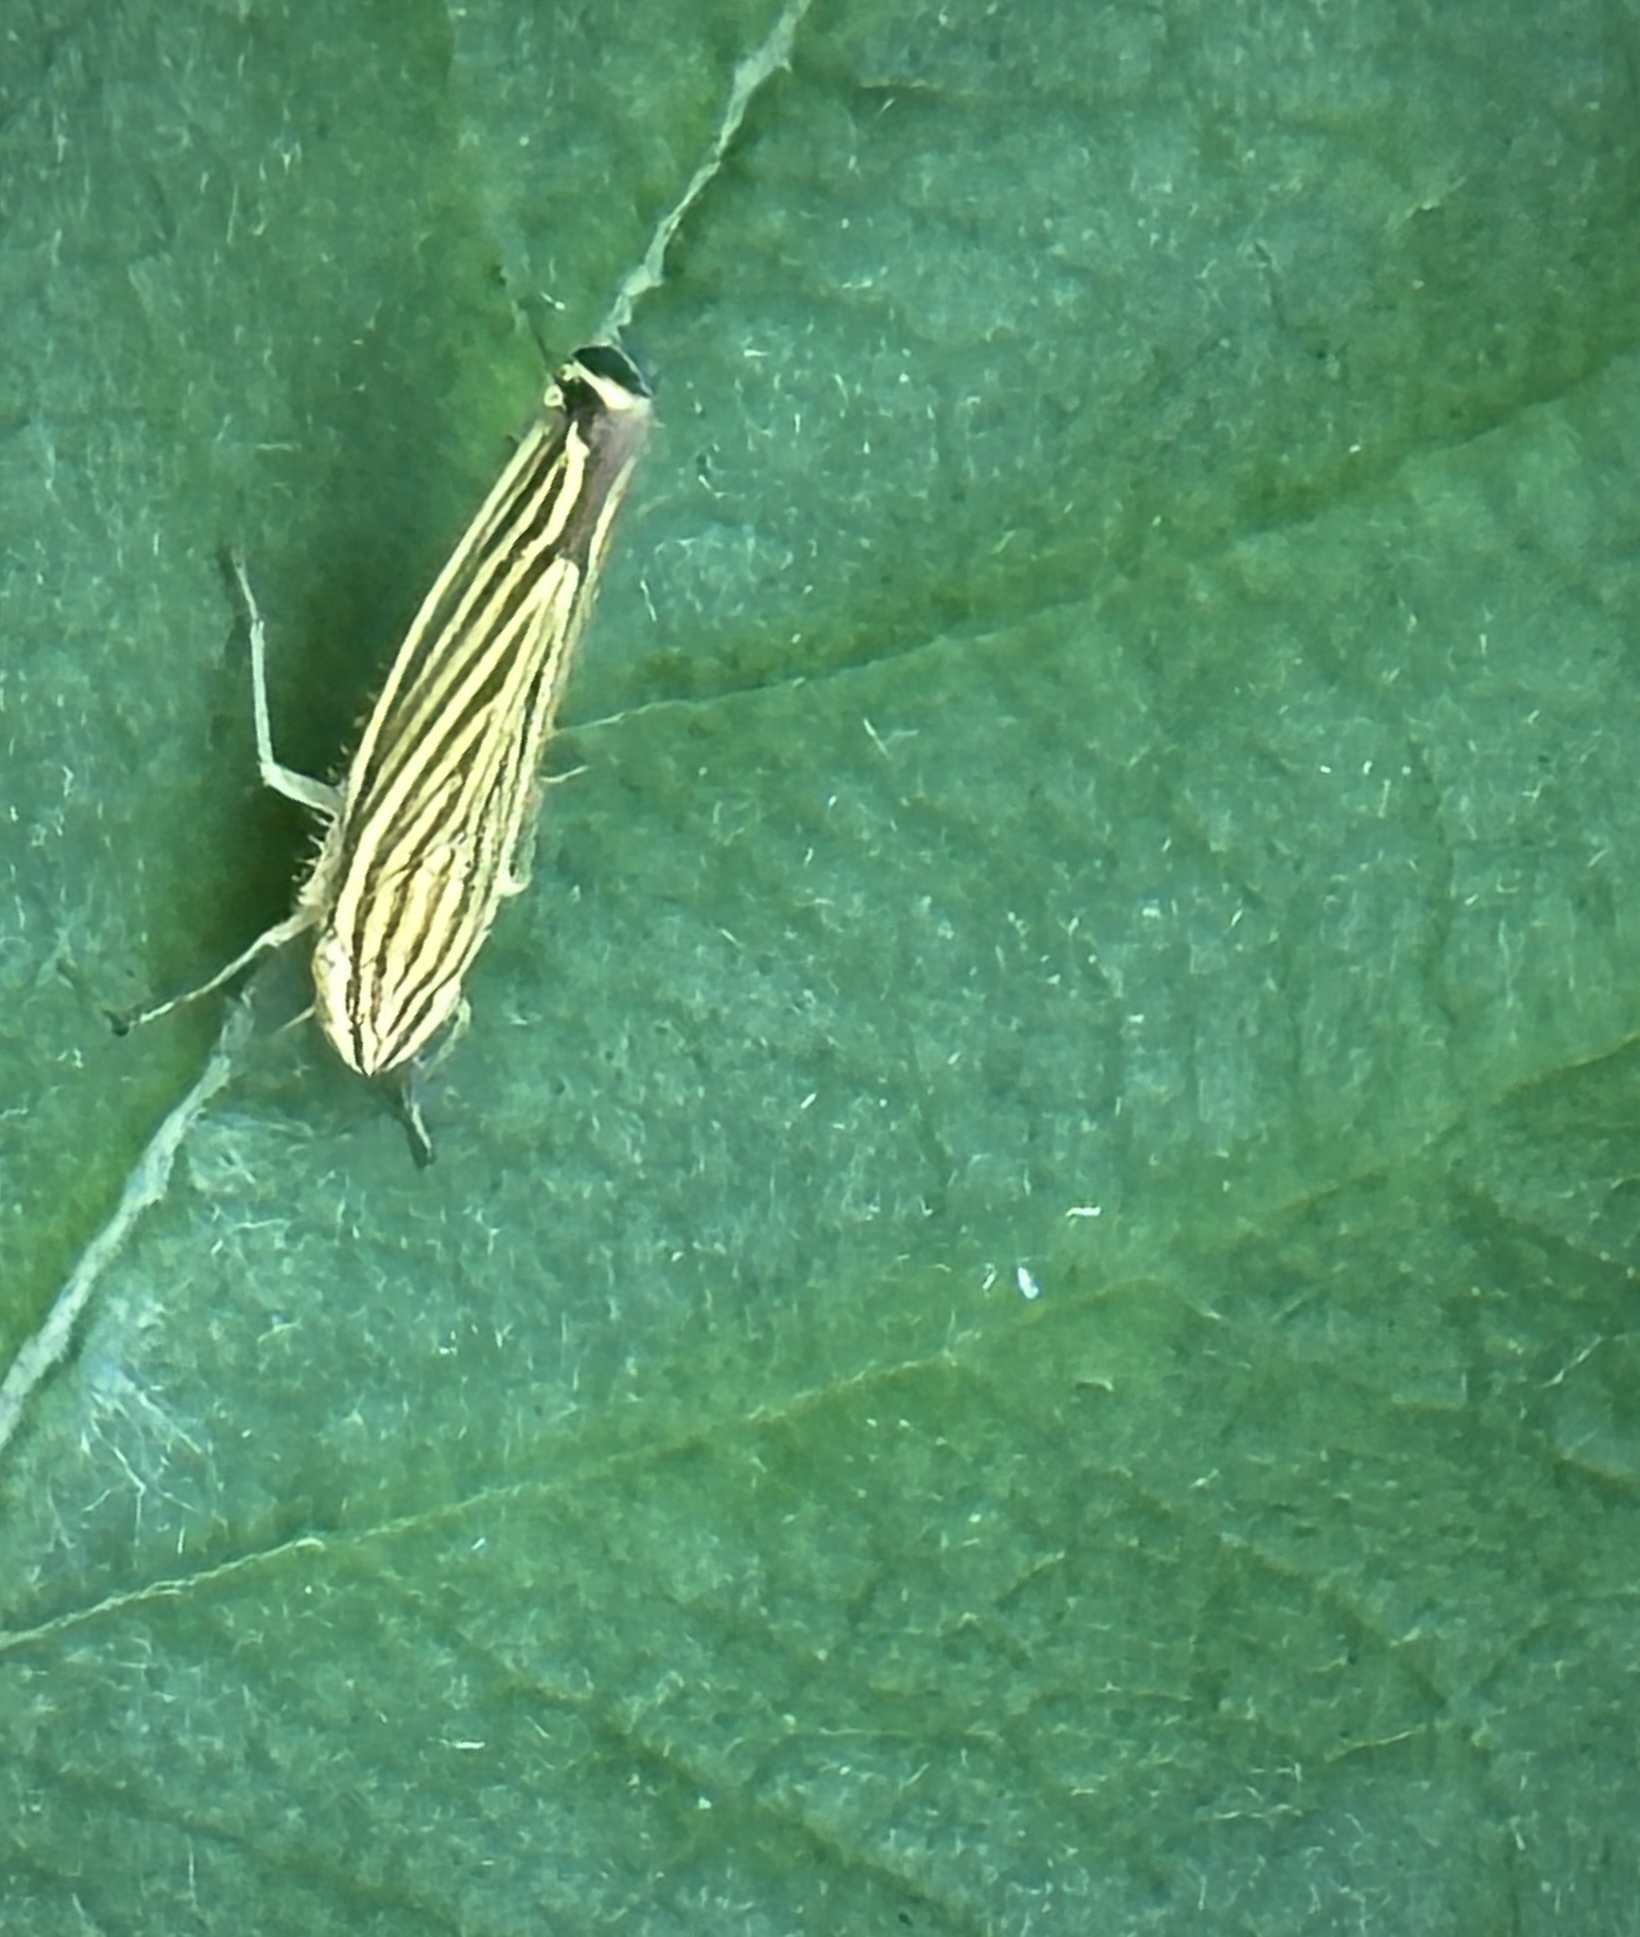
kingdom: Animalia
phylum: Arthropoda
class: Insecta
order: Hemiptera
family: Cicadellidae
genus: Sibovia
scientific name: Sibovia occatoria
